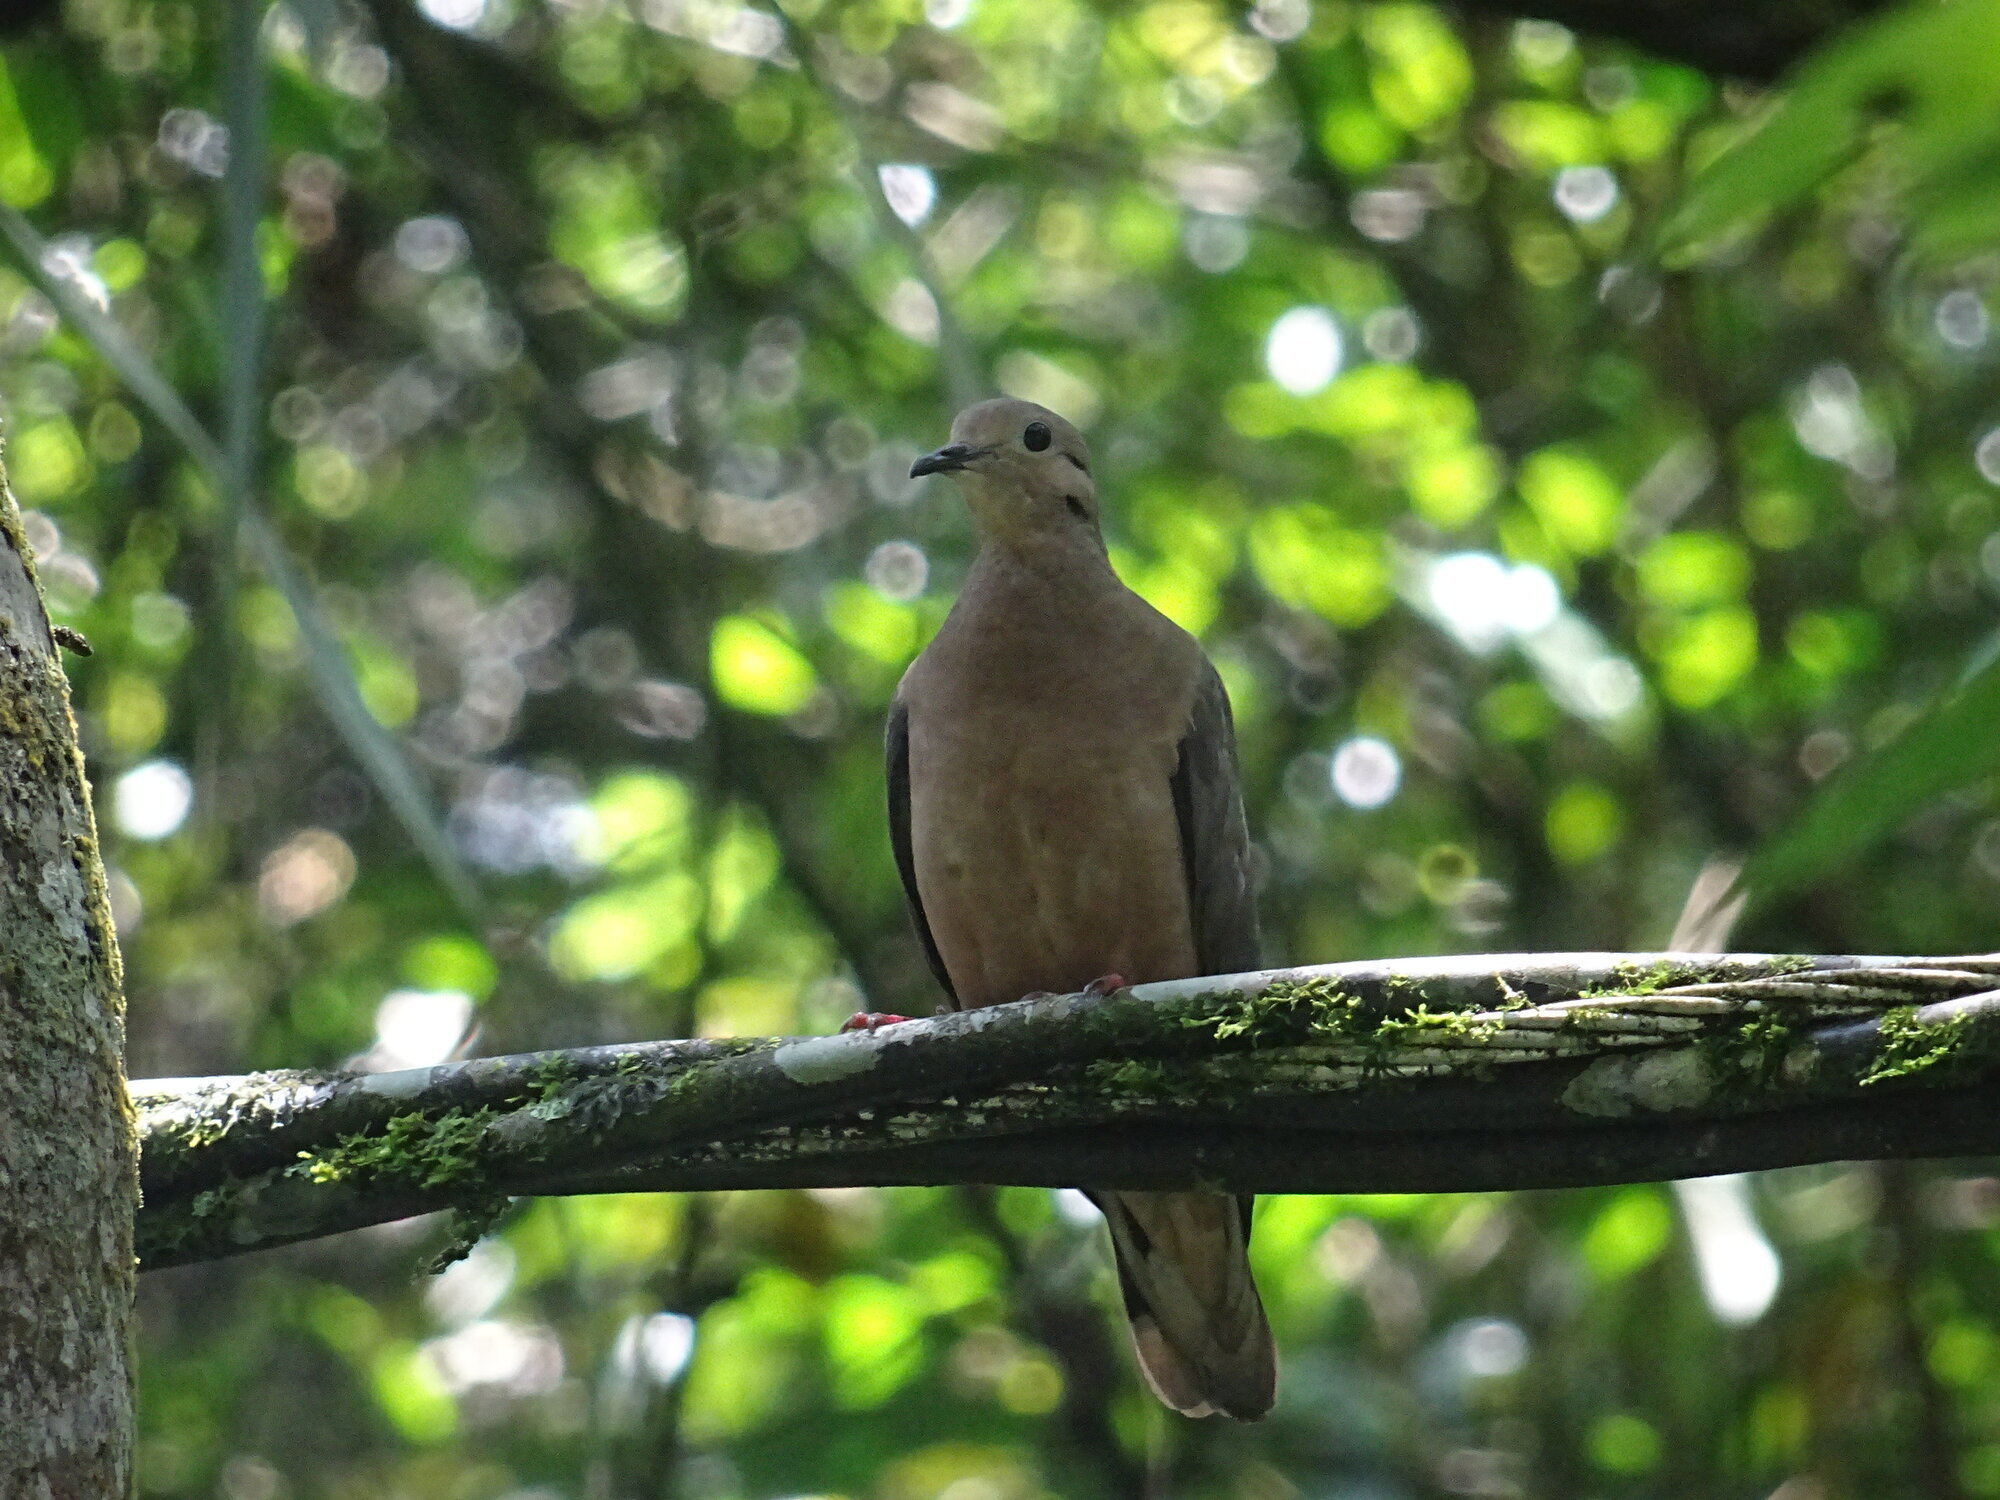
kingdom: Animalia
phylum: Chordata
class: Aves
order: Columbiformes
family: Columbidae
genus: Zenaida
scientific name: Zenaida auriculata
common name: Eared dove
